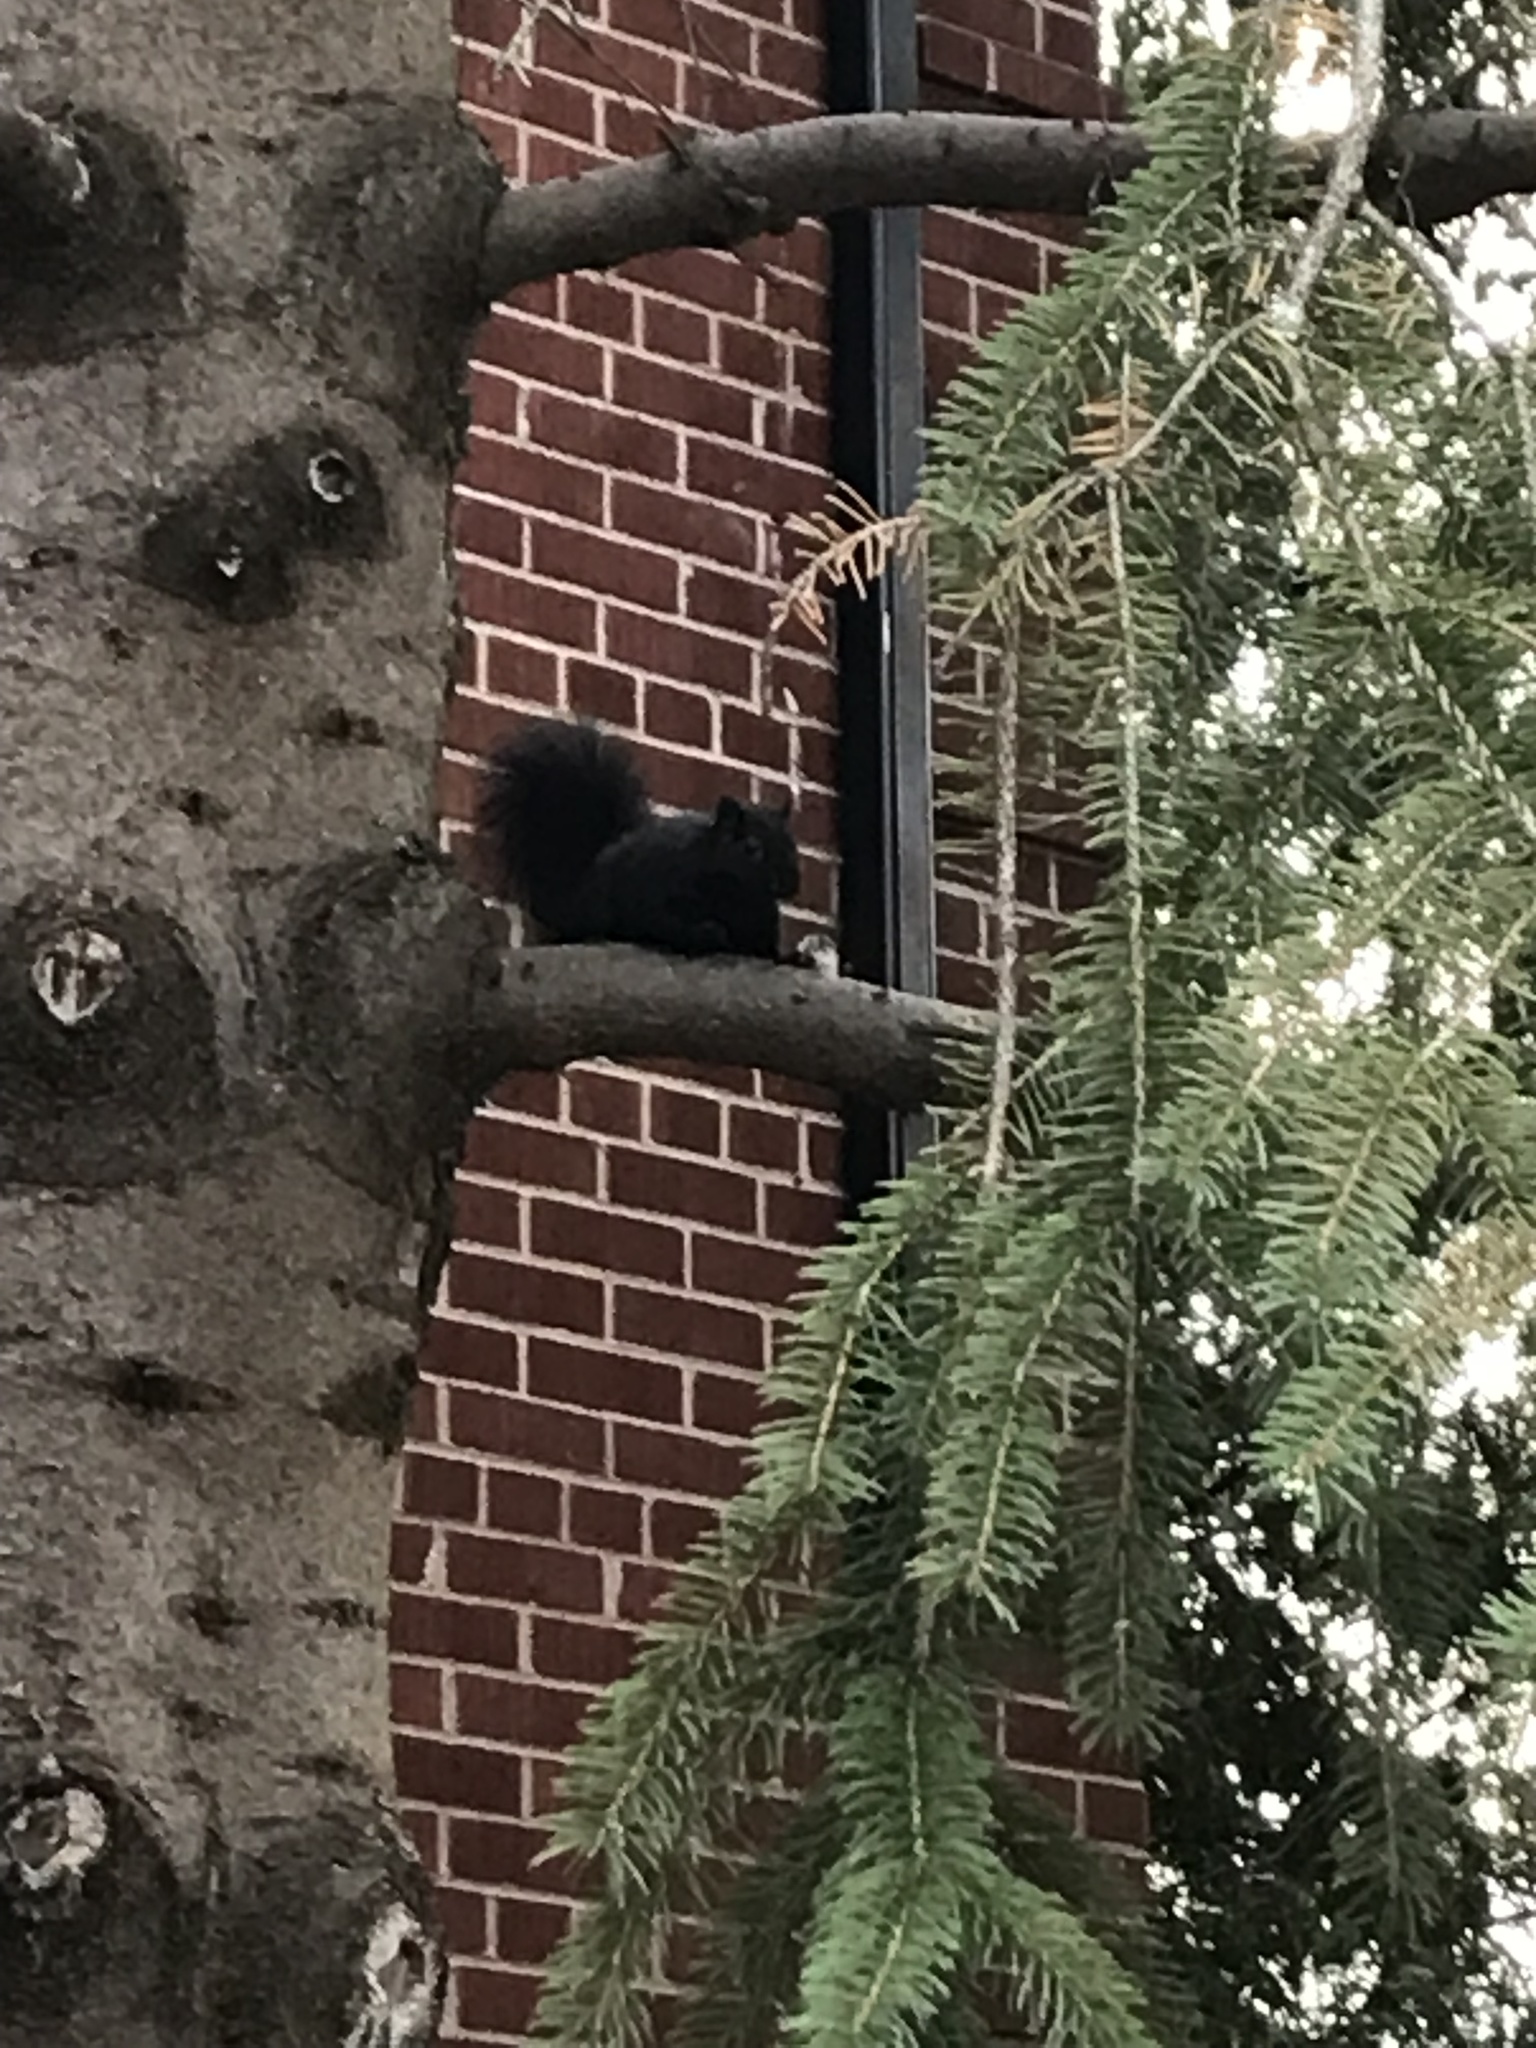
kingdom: Animalia
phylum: Chordata
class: Mammalia
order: Rodentia
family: Sciuridae
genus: Sciurus
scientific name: Sciurus carolinensis
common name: Eastern gray squirrel
